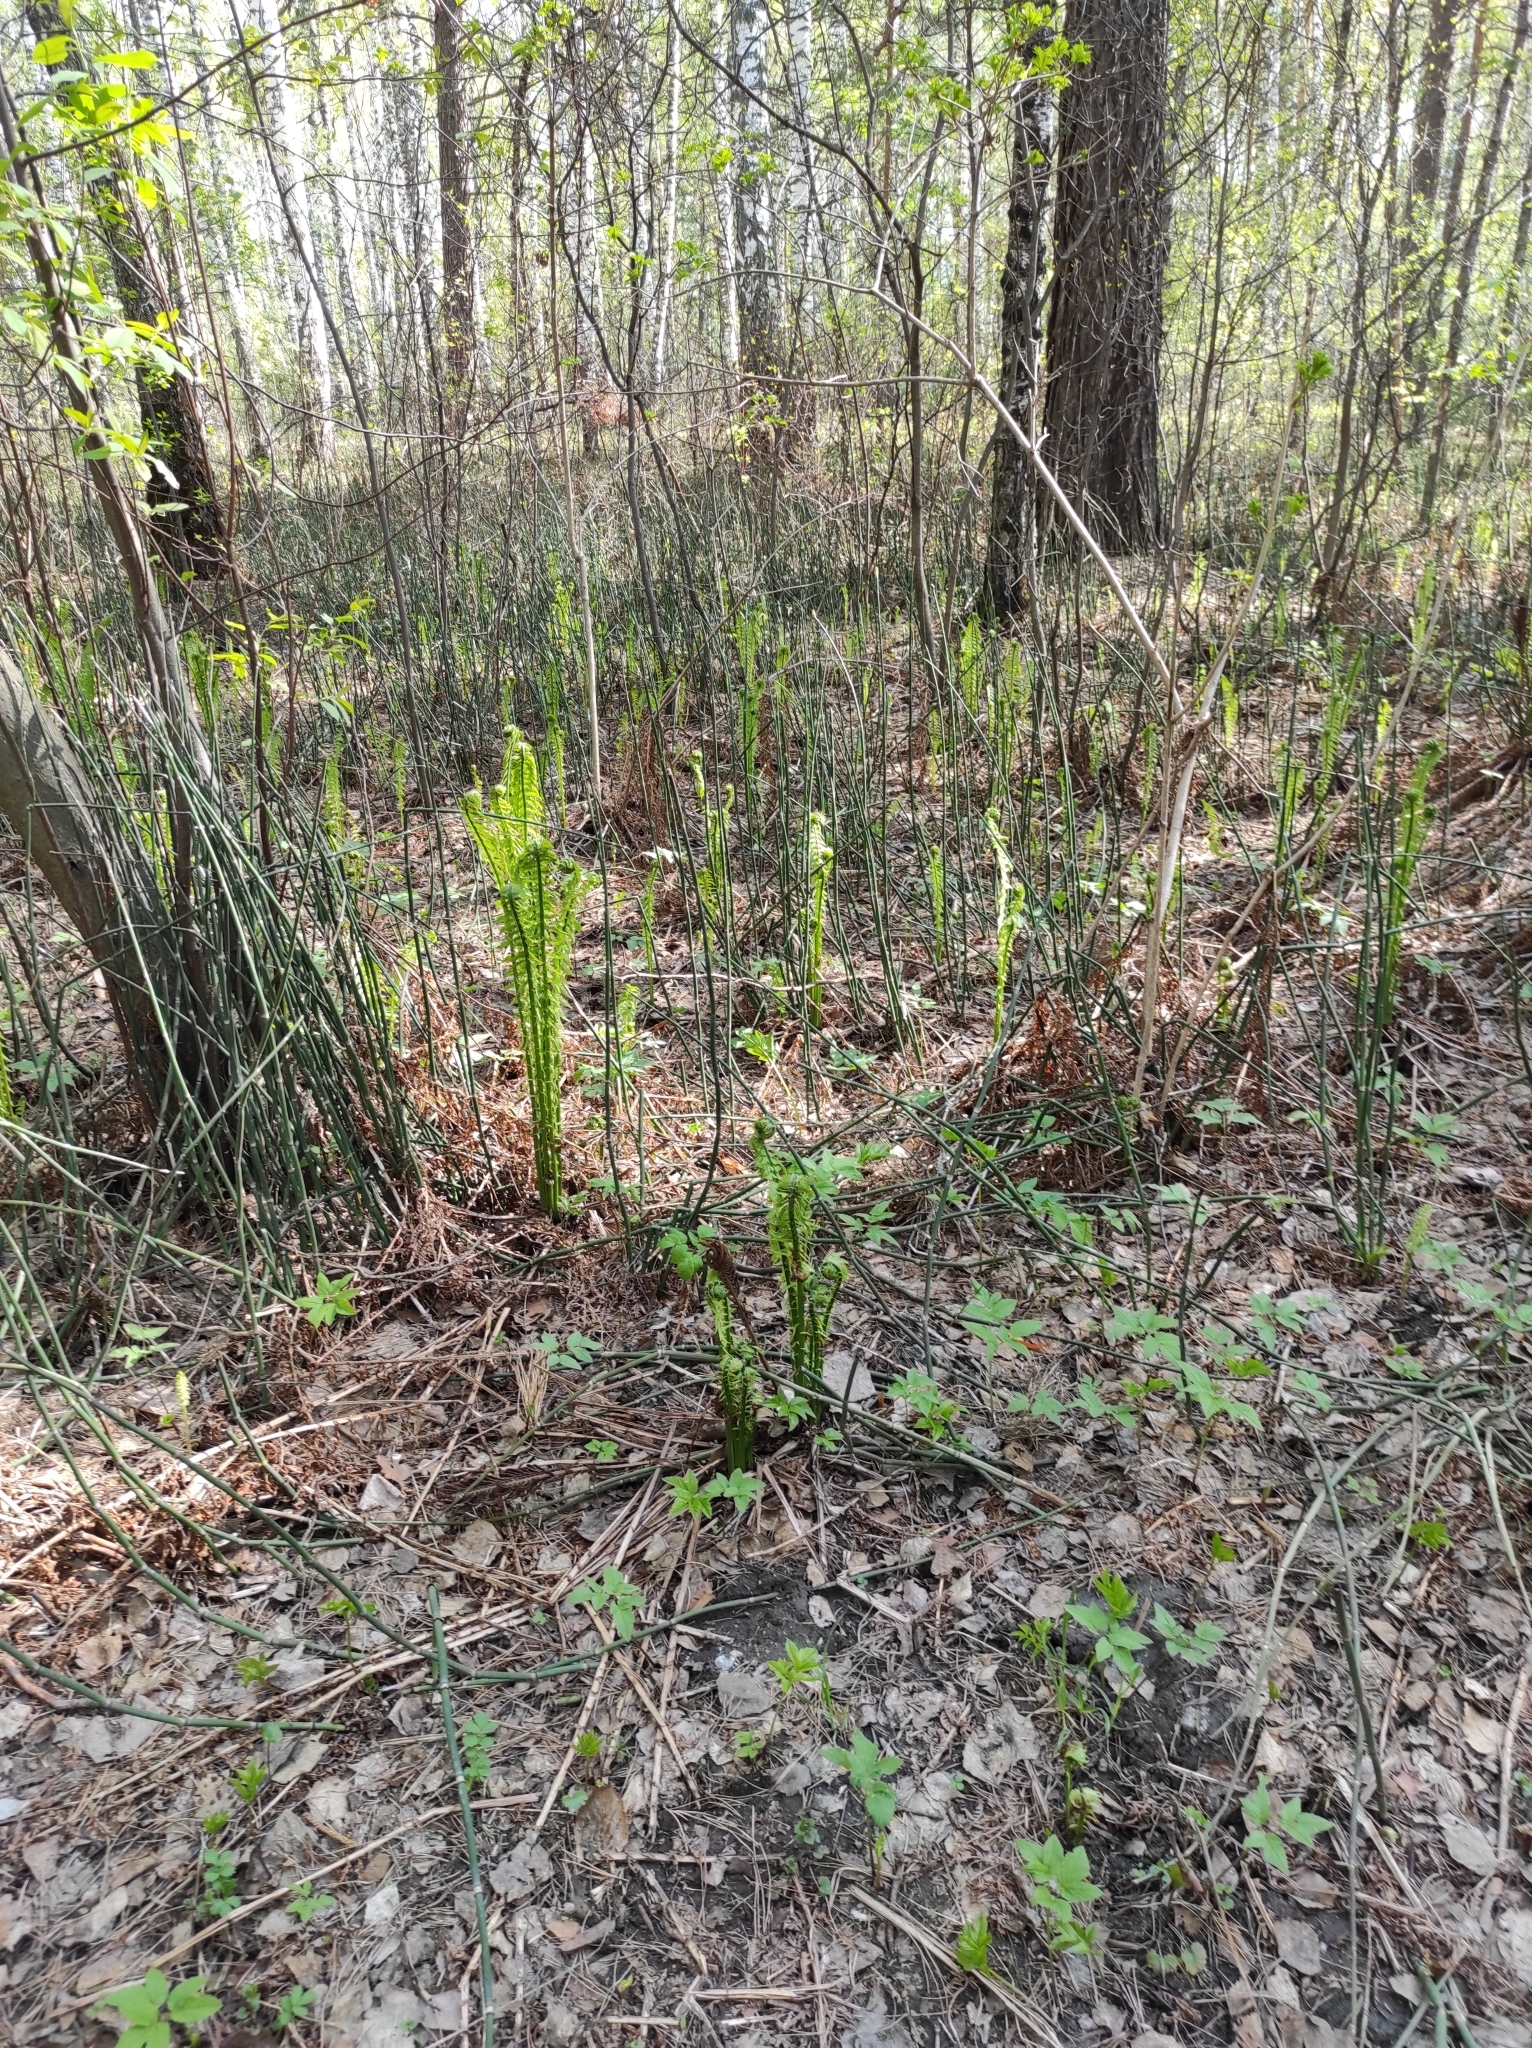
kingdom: Plantae
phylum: Tracheophyta
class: Polypodiopsida
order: Equisetales
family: Equisetaceae
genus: Equisetum
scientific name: Equisetum hyemale
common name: Rough horsetail
